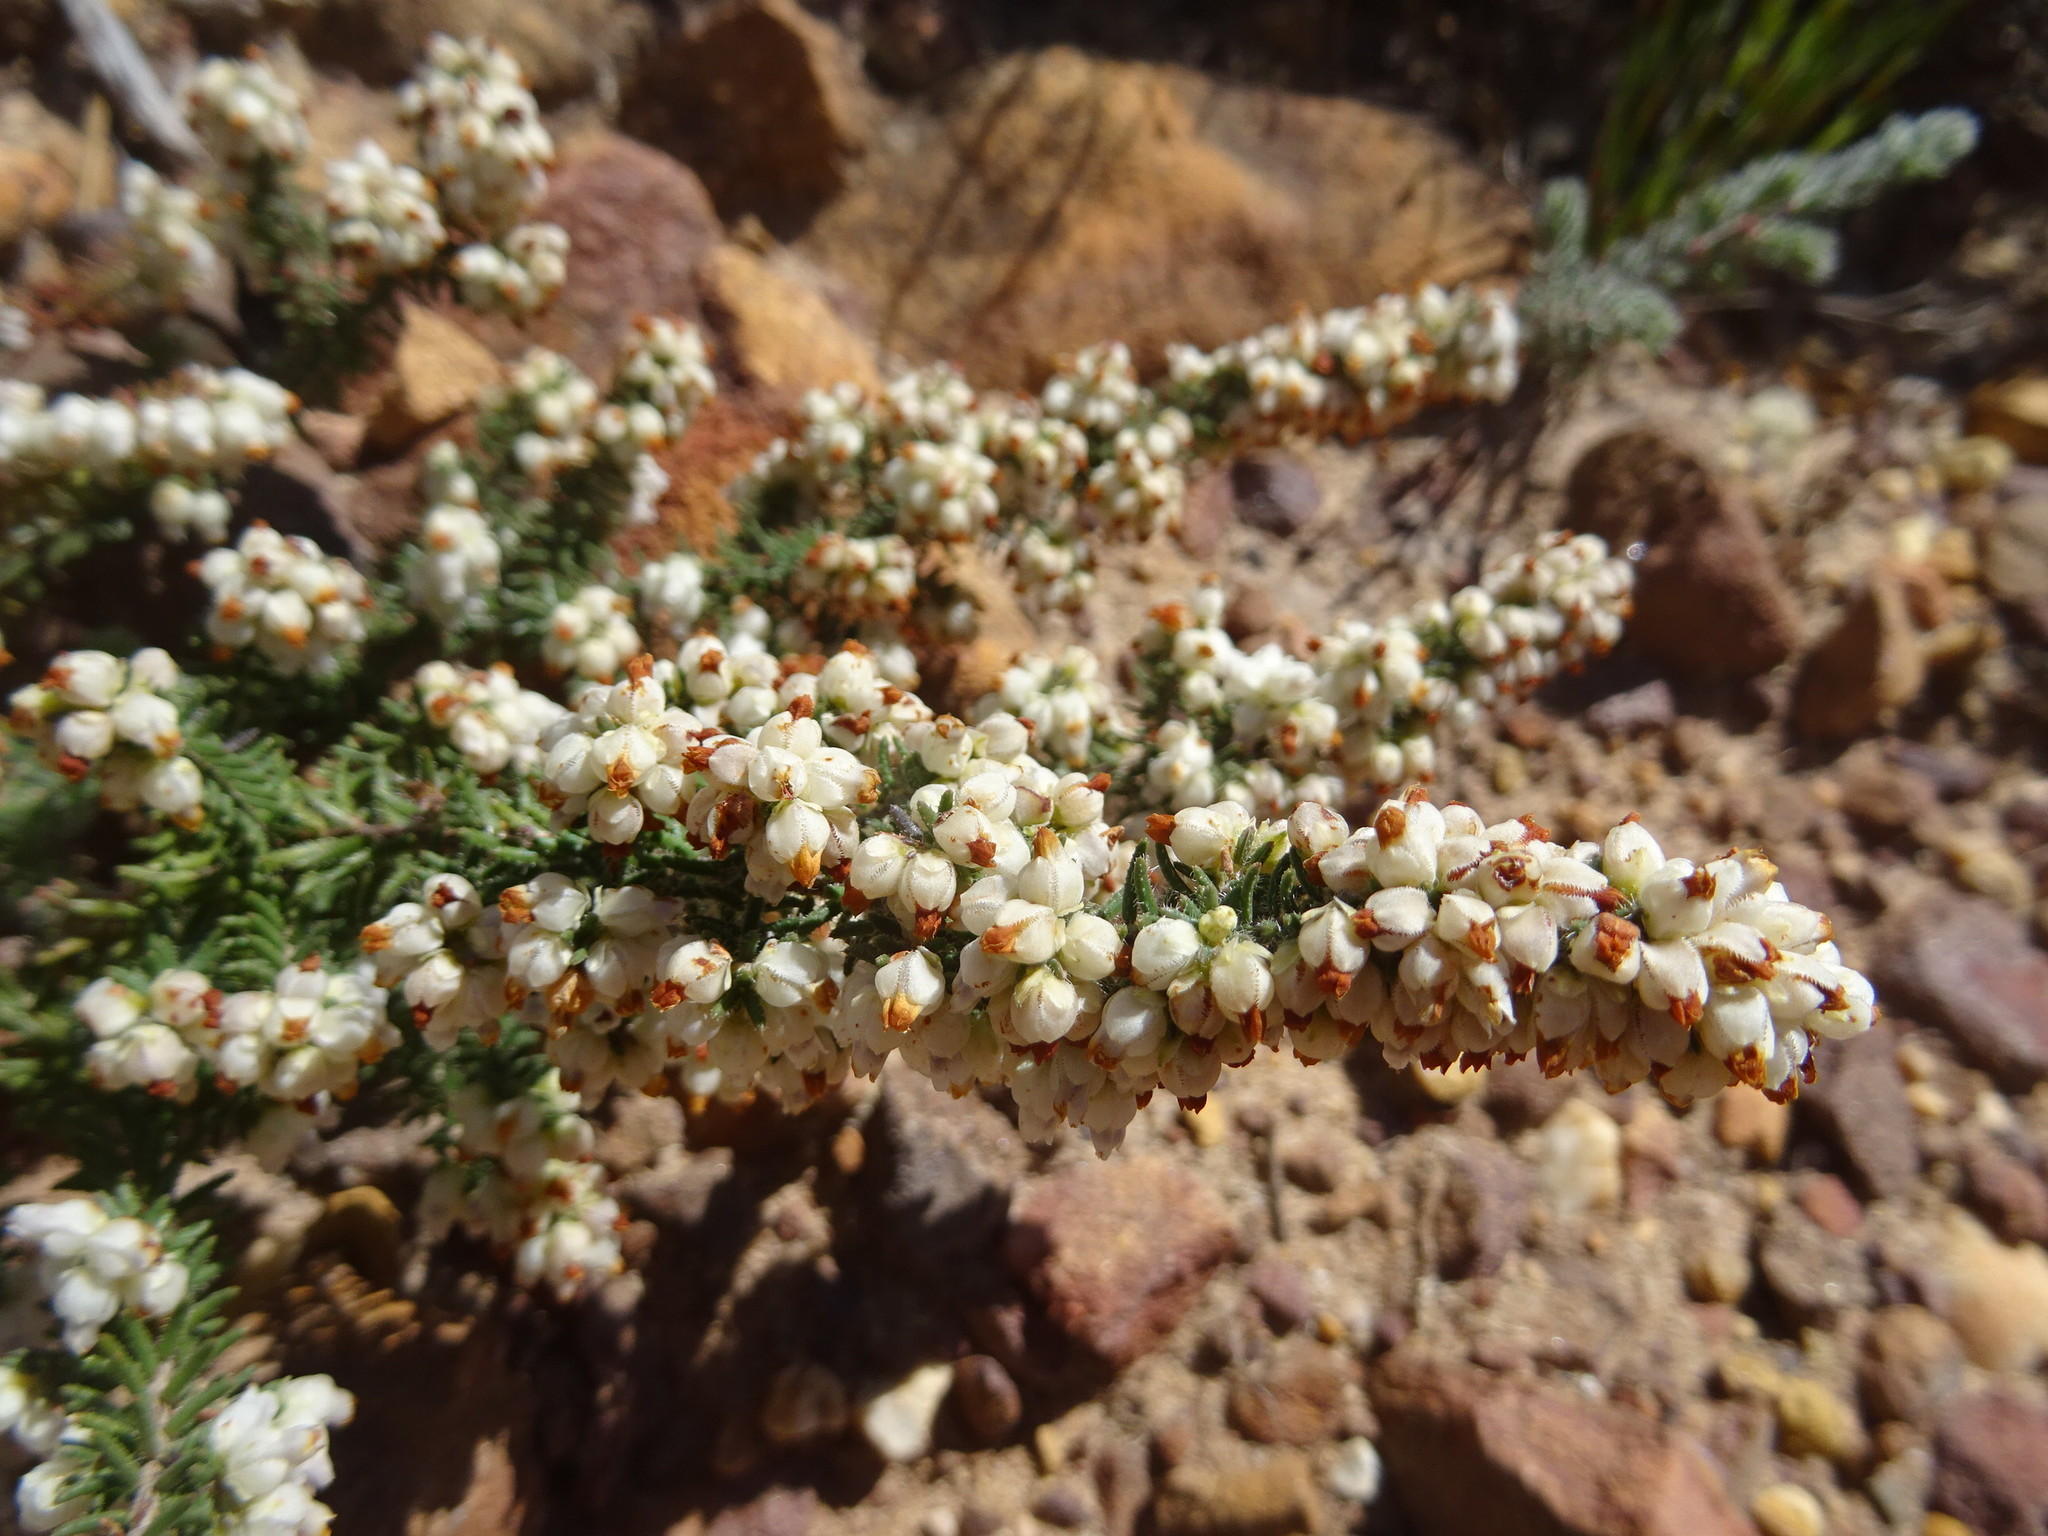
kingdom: Plantae
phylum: Tracheophyta
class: Magnoliopsida
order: Ericales
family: Ericaceae
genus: Erica
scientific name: Erica totta
